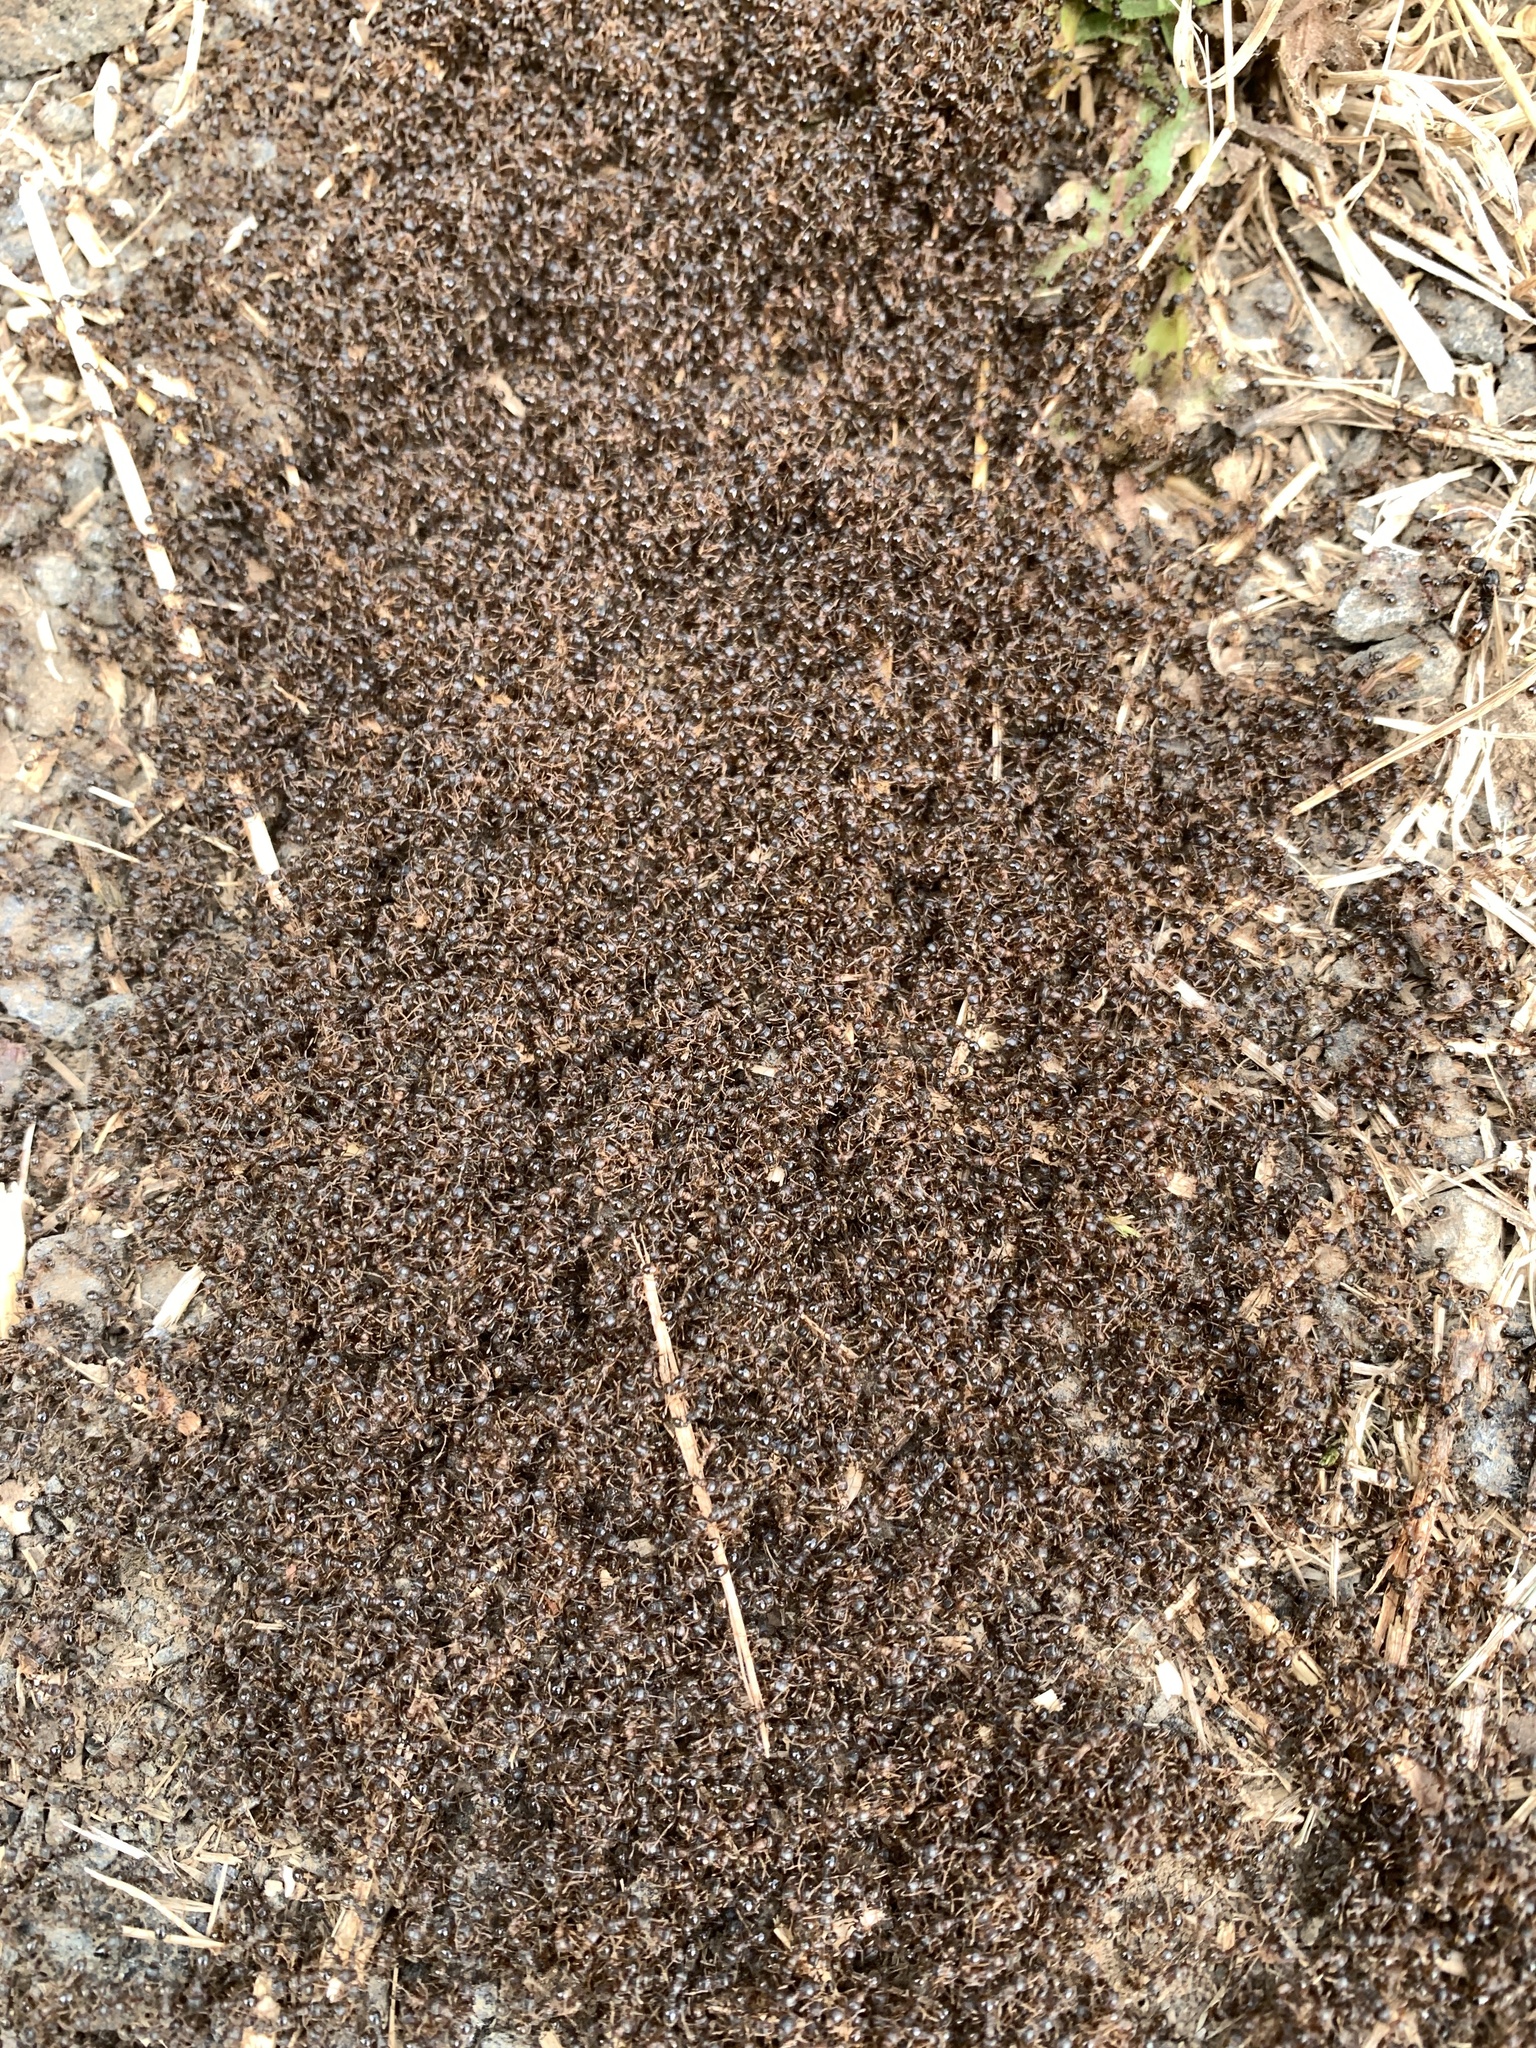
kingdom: Animalia
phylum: Arthropoda
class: Insecta
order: Hymenoptera
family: Formicidae
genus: Tetramorium
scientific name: Tetramorium immigrans
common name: Pavement ant
